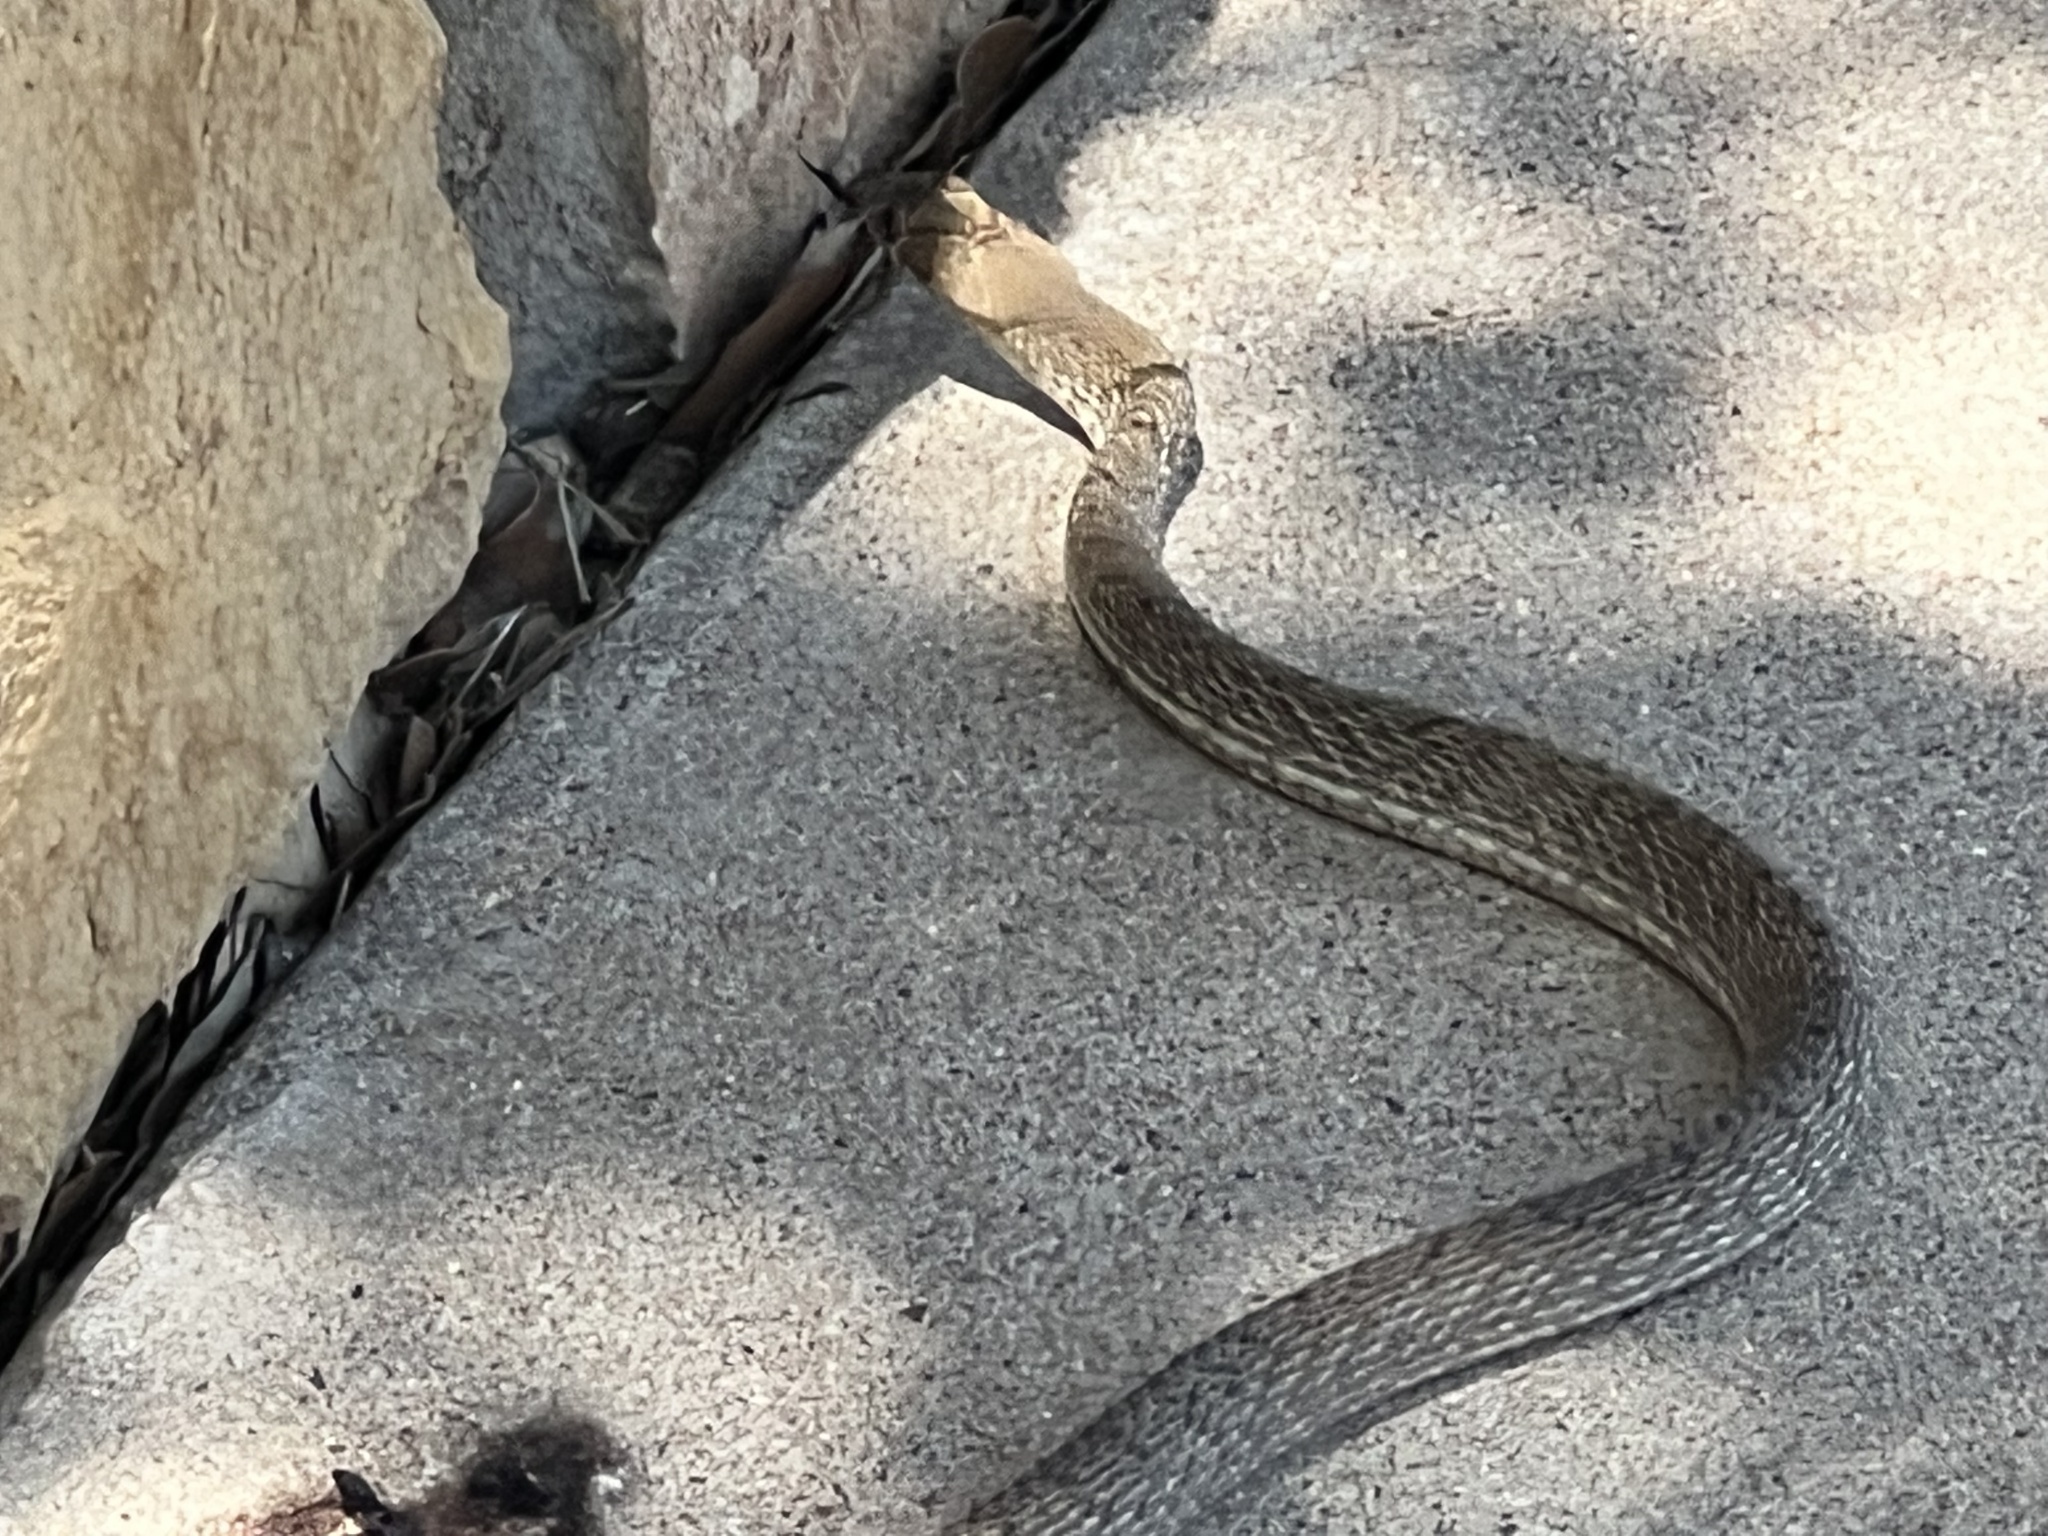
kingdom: Animalia
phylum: Chordata
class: Squamata
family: Colubridae
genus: Masticophis
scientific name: Masticophis flagellum
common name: Coachwhip
